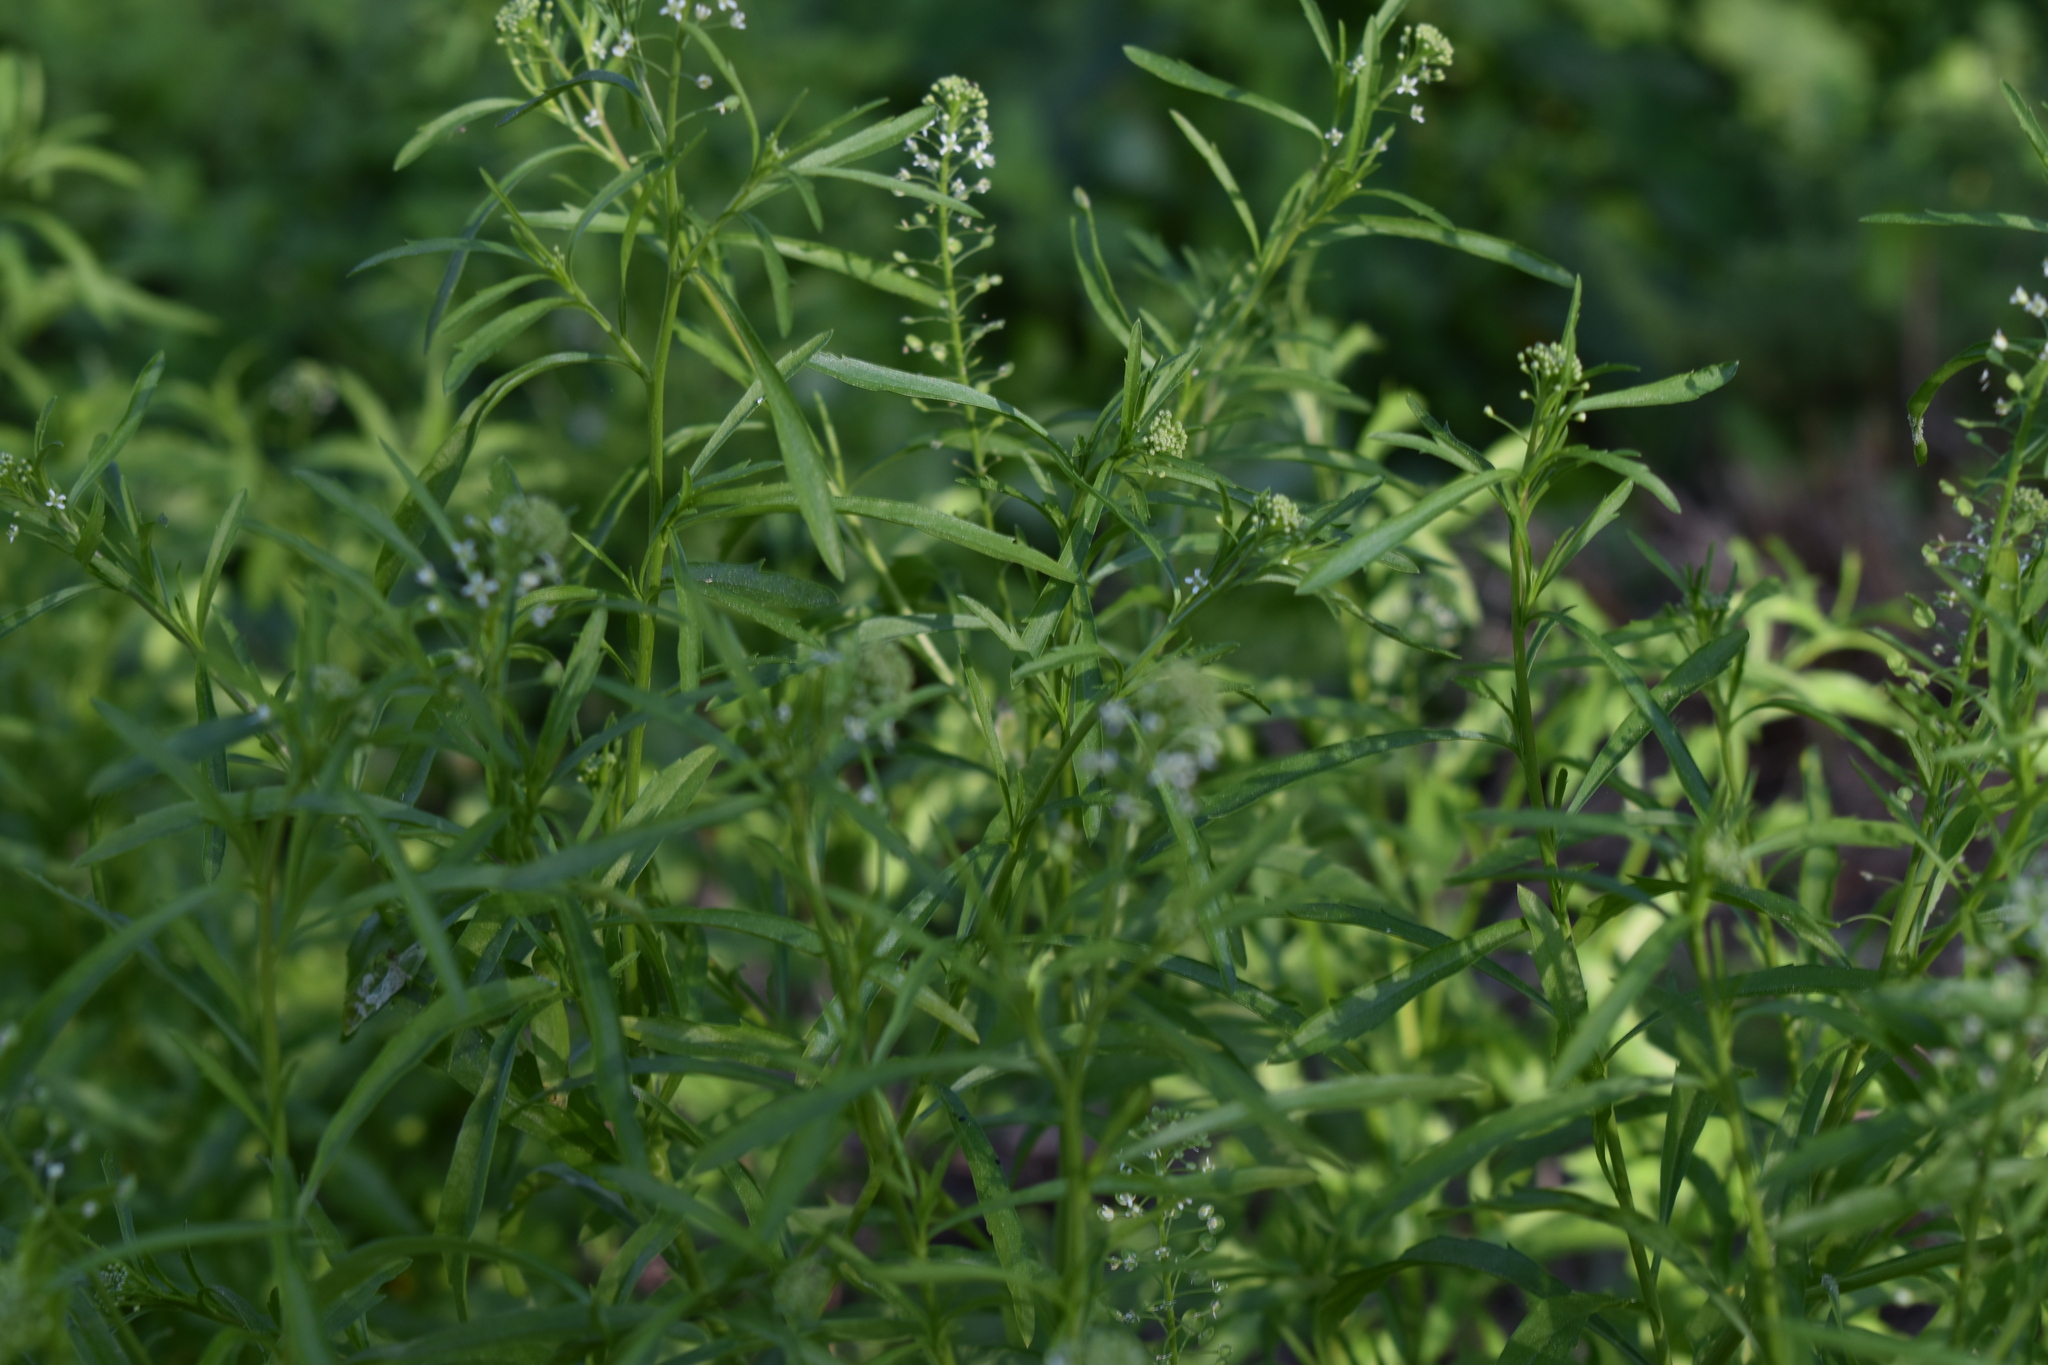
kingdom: Plantae
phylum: Tracheophyta
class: Magnoliopsida
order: Brassicales
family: Brassicaceae
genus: Lepidium
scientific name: Lepidium virginicum
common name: Least pepperwort
